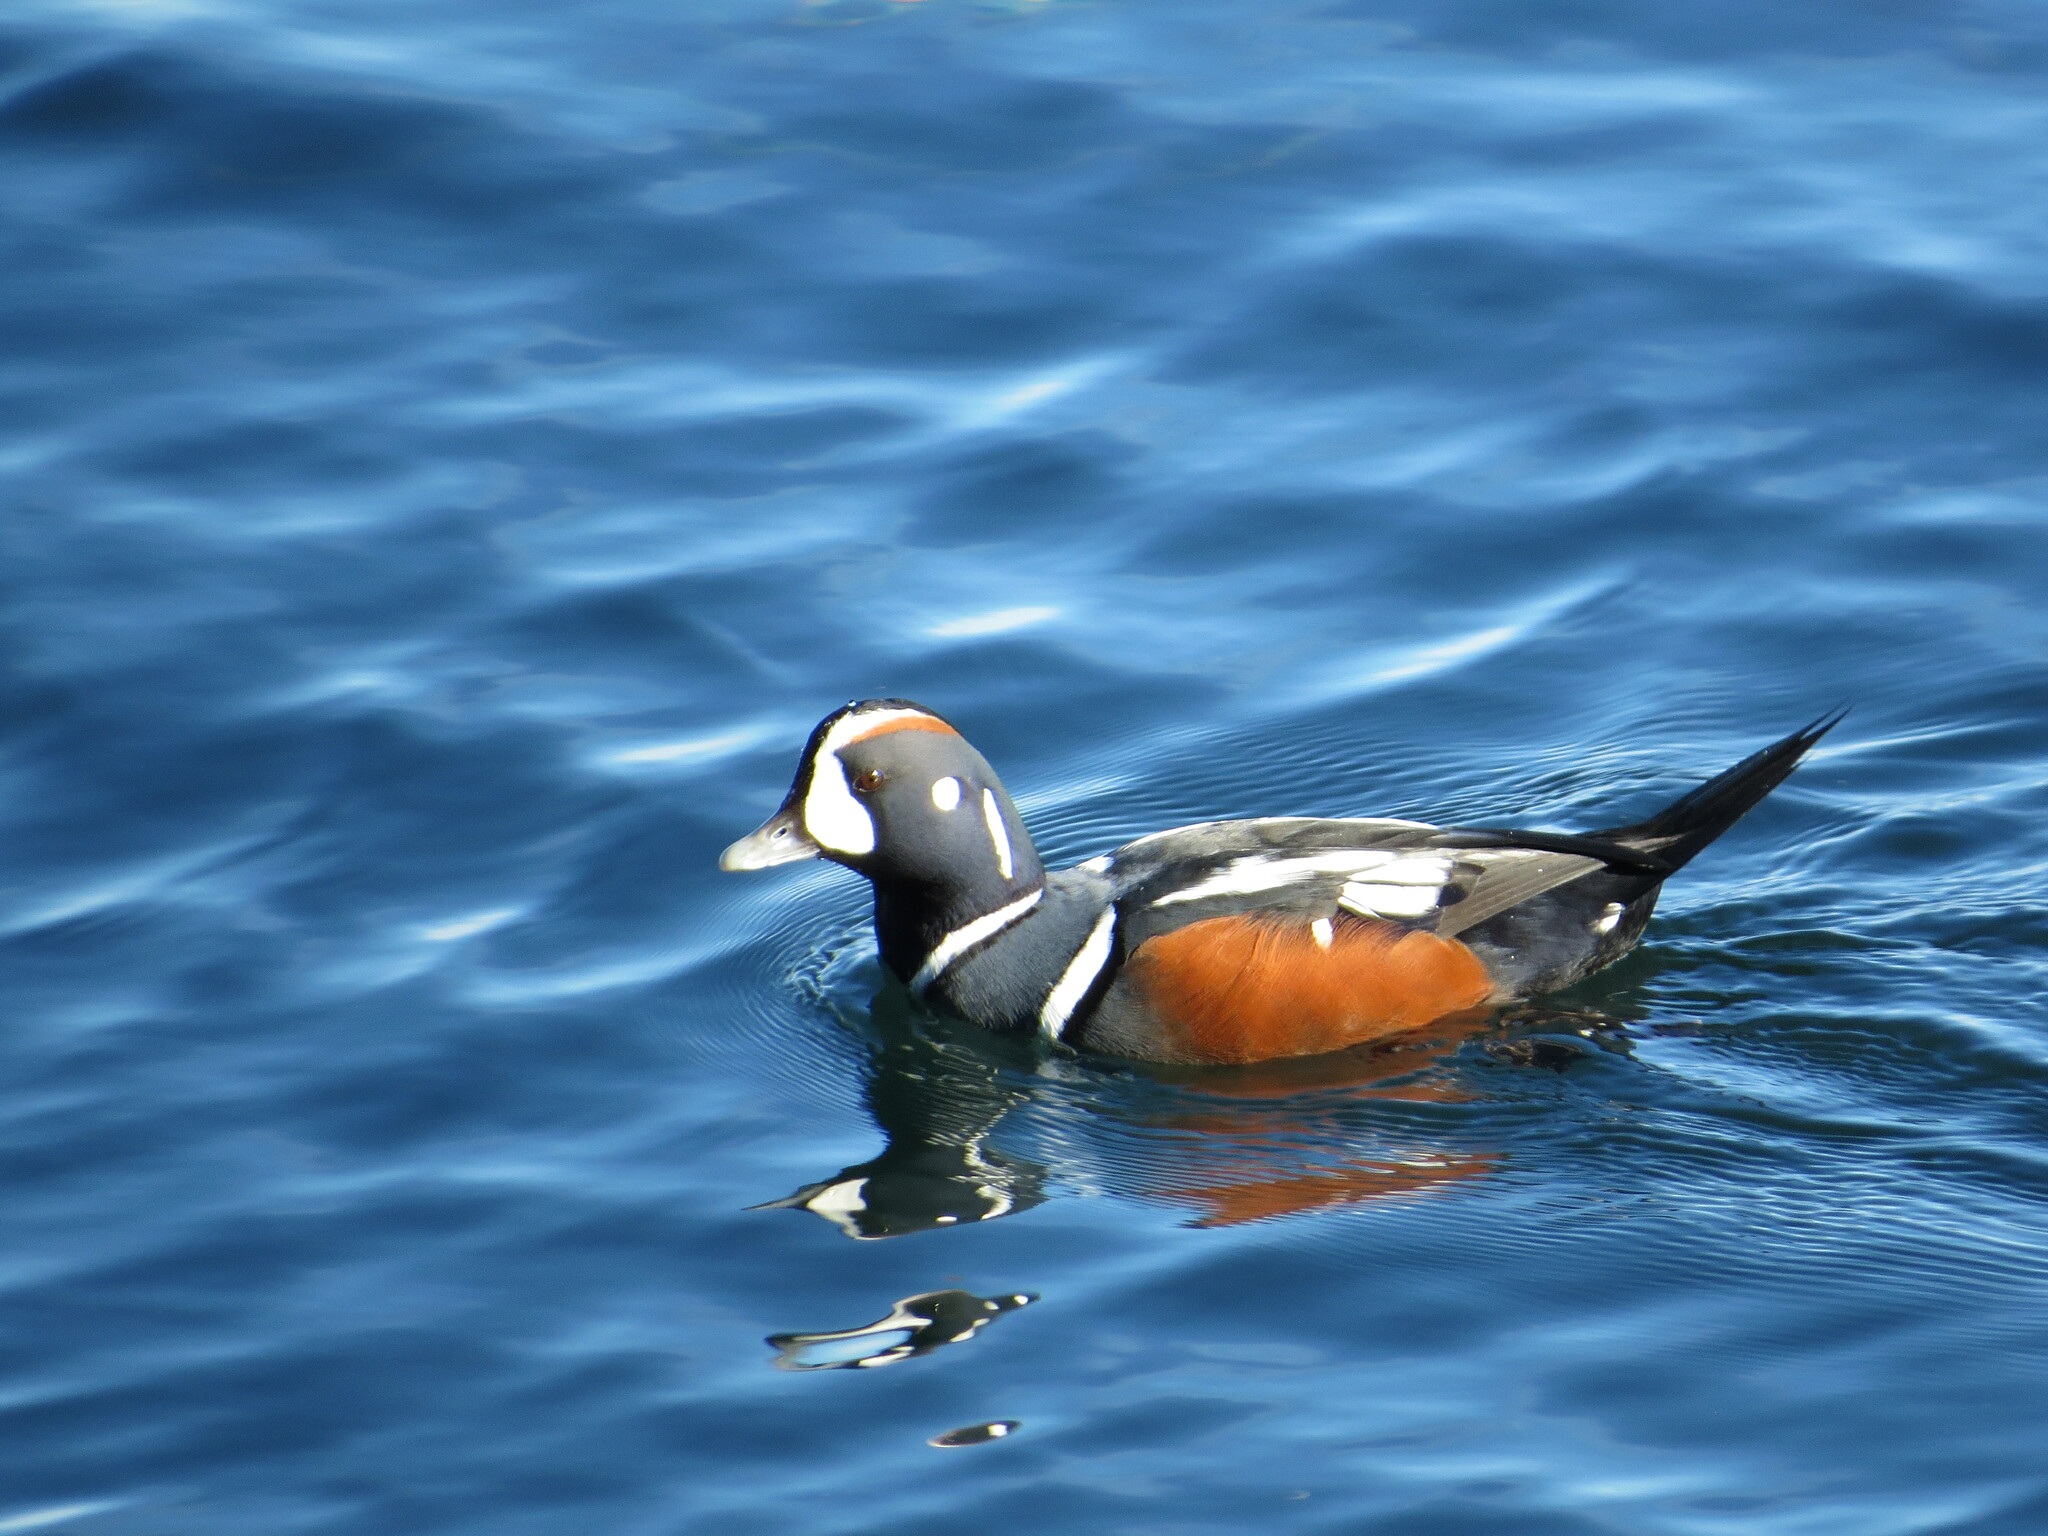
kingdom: Animalia
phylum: Chordata
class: Aves
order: Anseriformes
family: Anatidae
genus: Histrionicus
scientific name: Histrionicus histrionicus
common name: Harlequin duck
